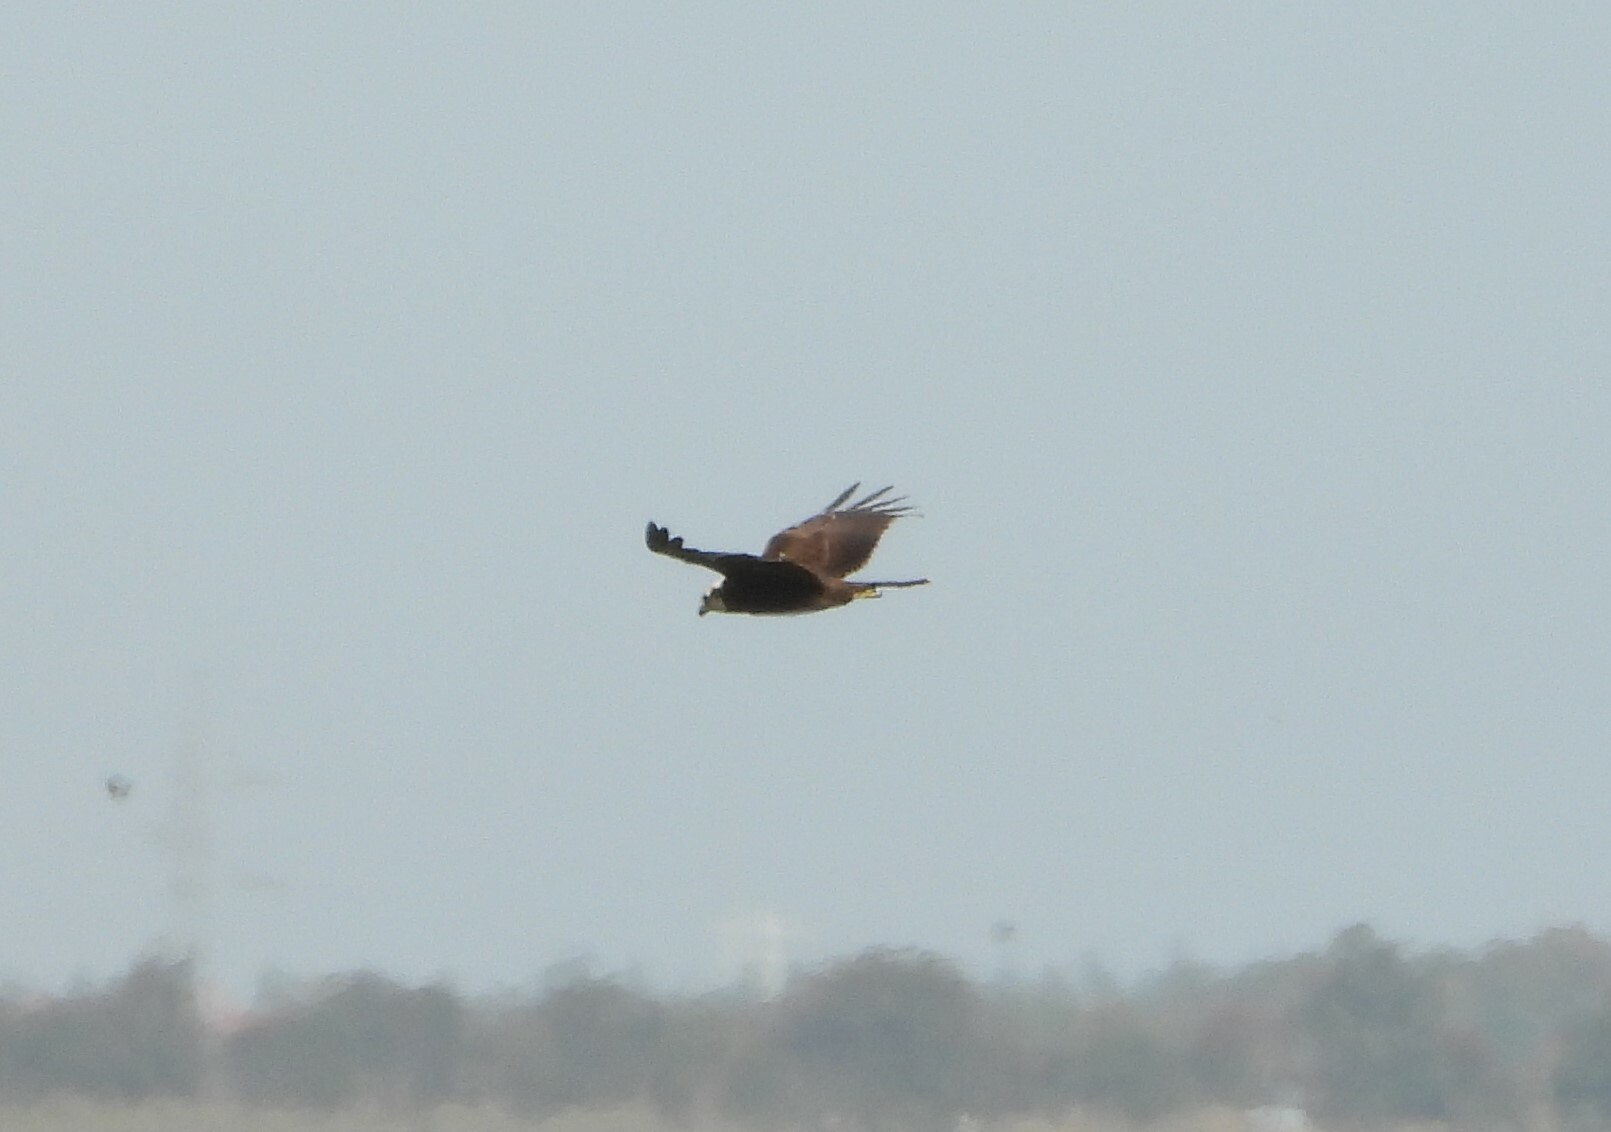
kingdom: Animalia
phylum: Chordata
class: Aves
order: Accipitriformes
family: Accipitridae
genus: Circus
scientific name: Circus aeruginosus
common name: Western marsh harrier
